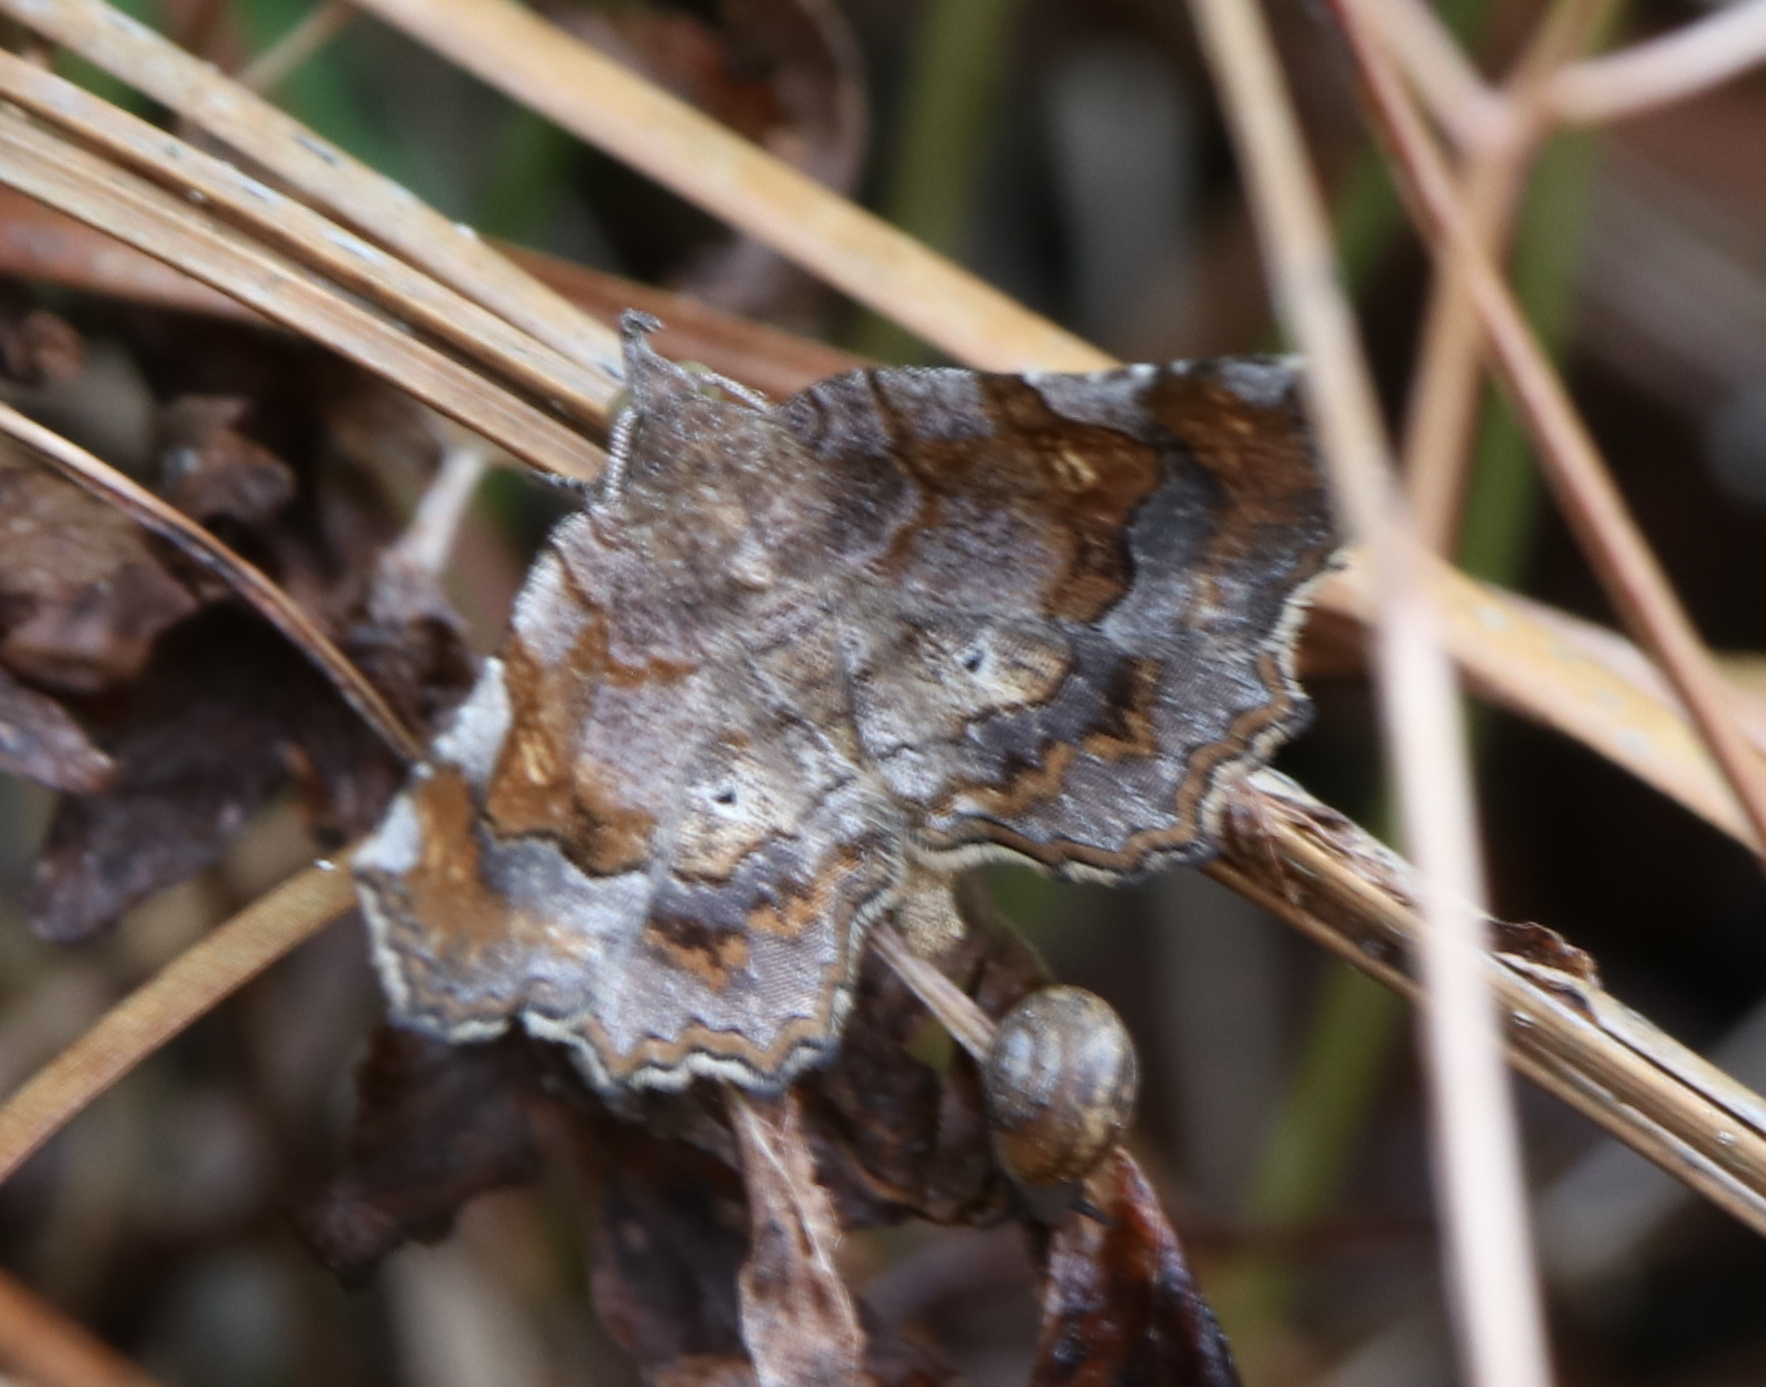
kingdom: Animalia
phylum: Arthropoda
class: Insecta
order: Lepidoptera
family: Erebidae
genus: Pangrapta
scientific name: Pangrapta decoralis
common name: Decorated owlet
